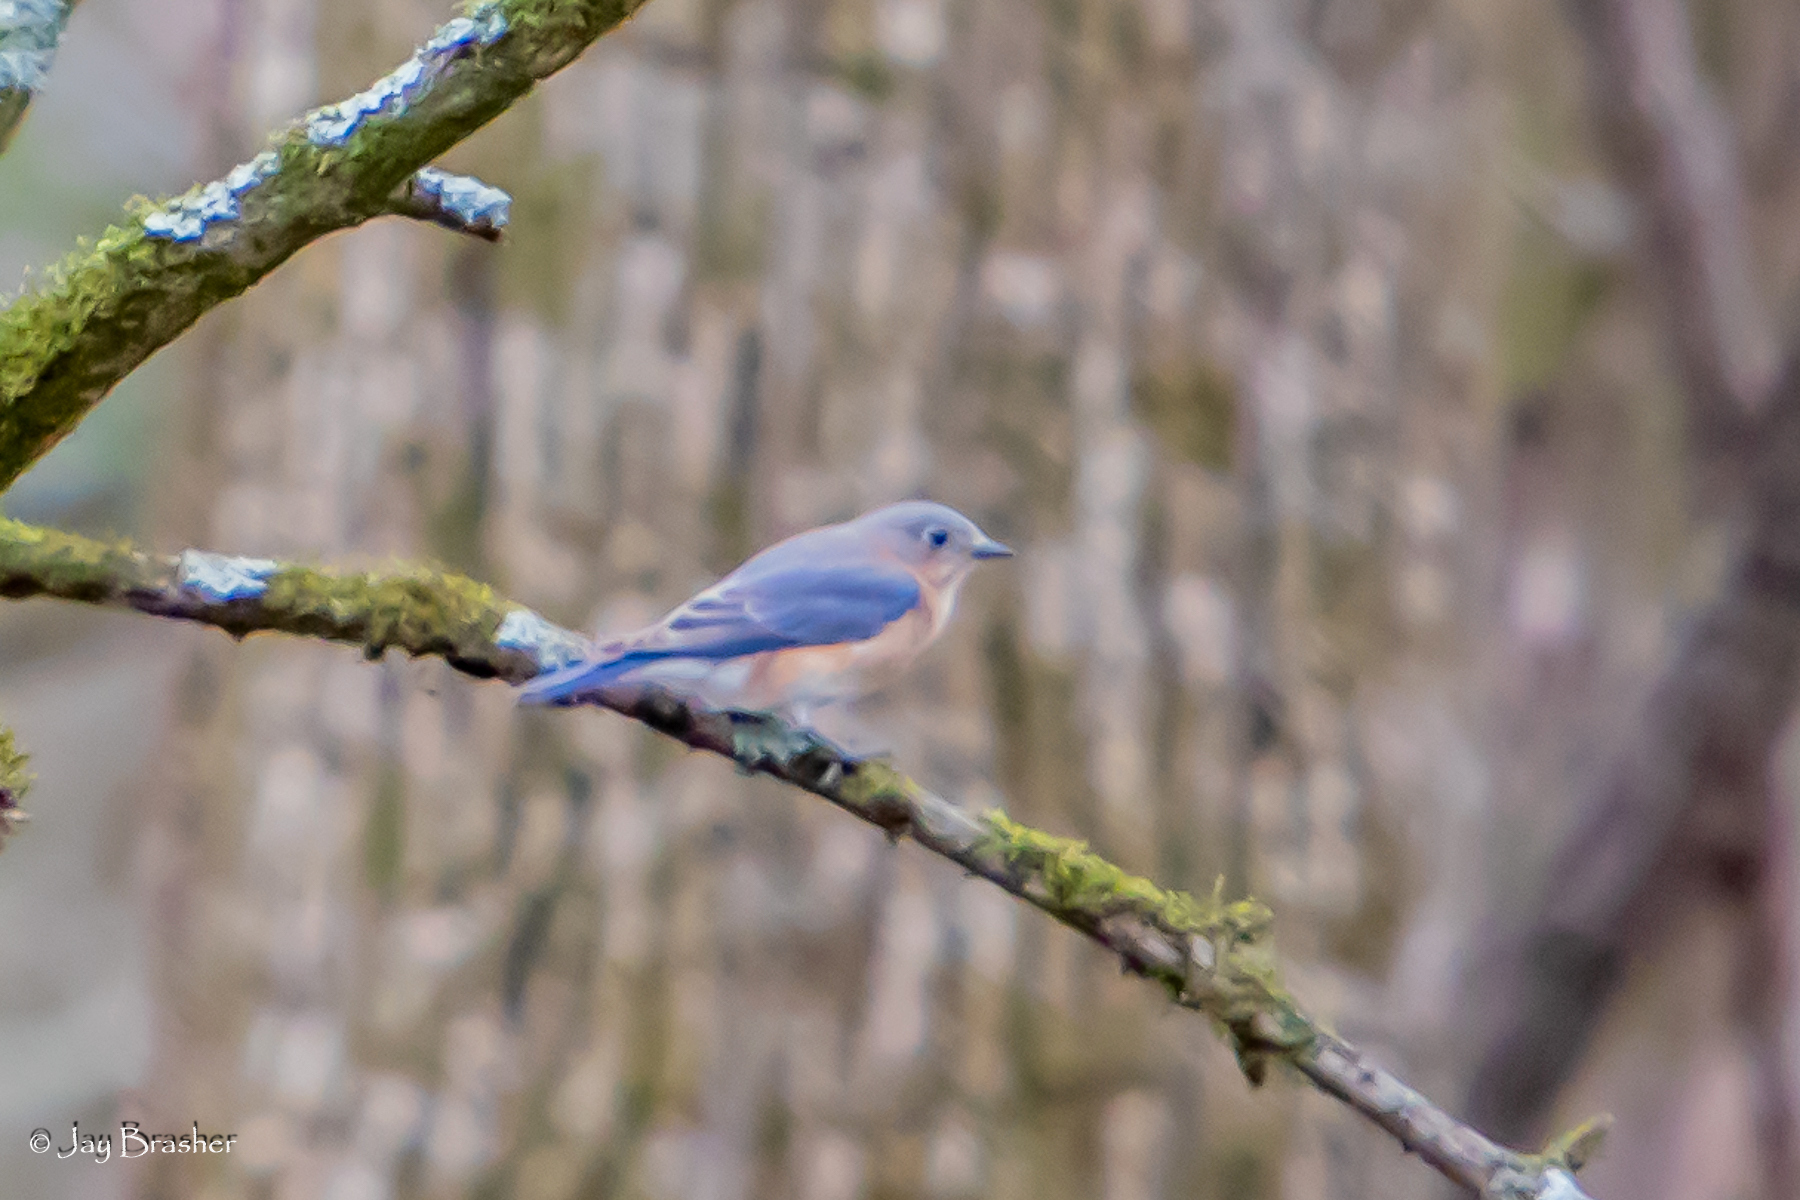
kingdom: Animalia
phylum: Chordata
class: Aves
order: Passeriformes
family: Turdidae
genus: Sialia
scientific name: Sialia sialis
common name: Eastern bluebird
